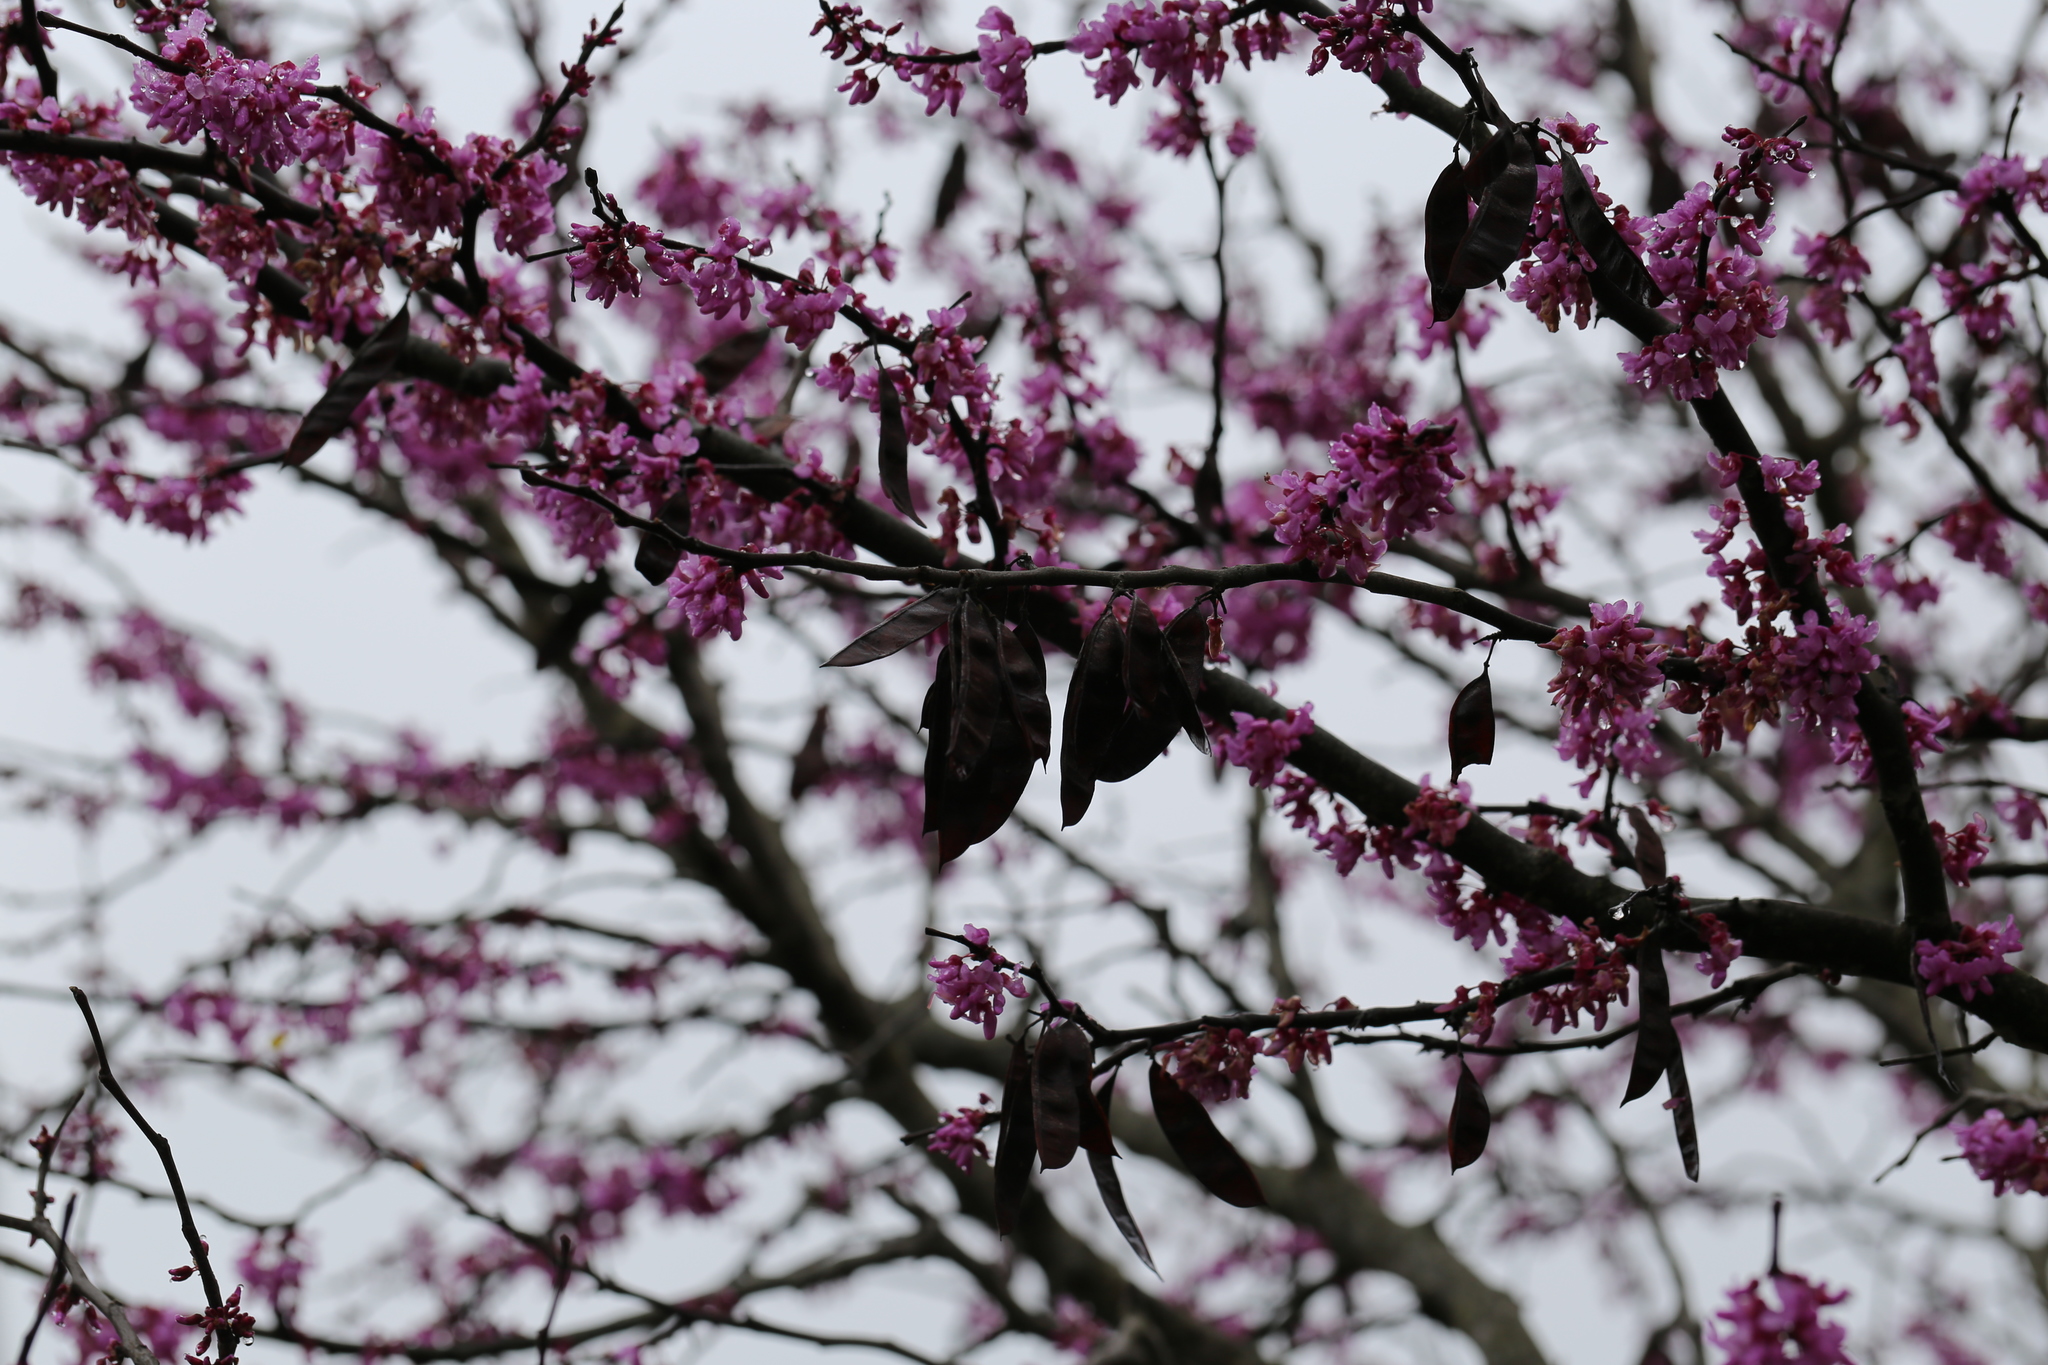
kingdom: Plantae
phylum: Tracheophyta
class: Magnoliopsida
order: Fabales
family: Fabaceae
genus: Cercis
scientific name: Cercis canadensis
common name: Eastern redbud
